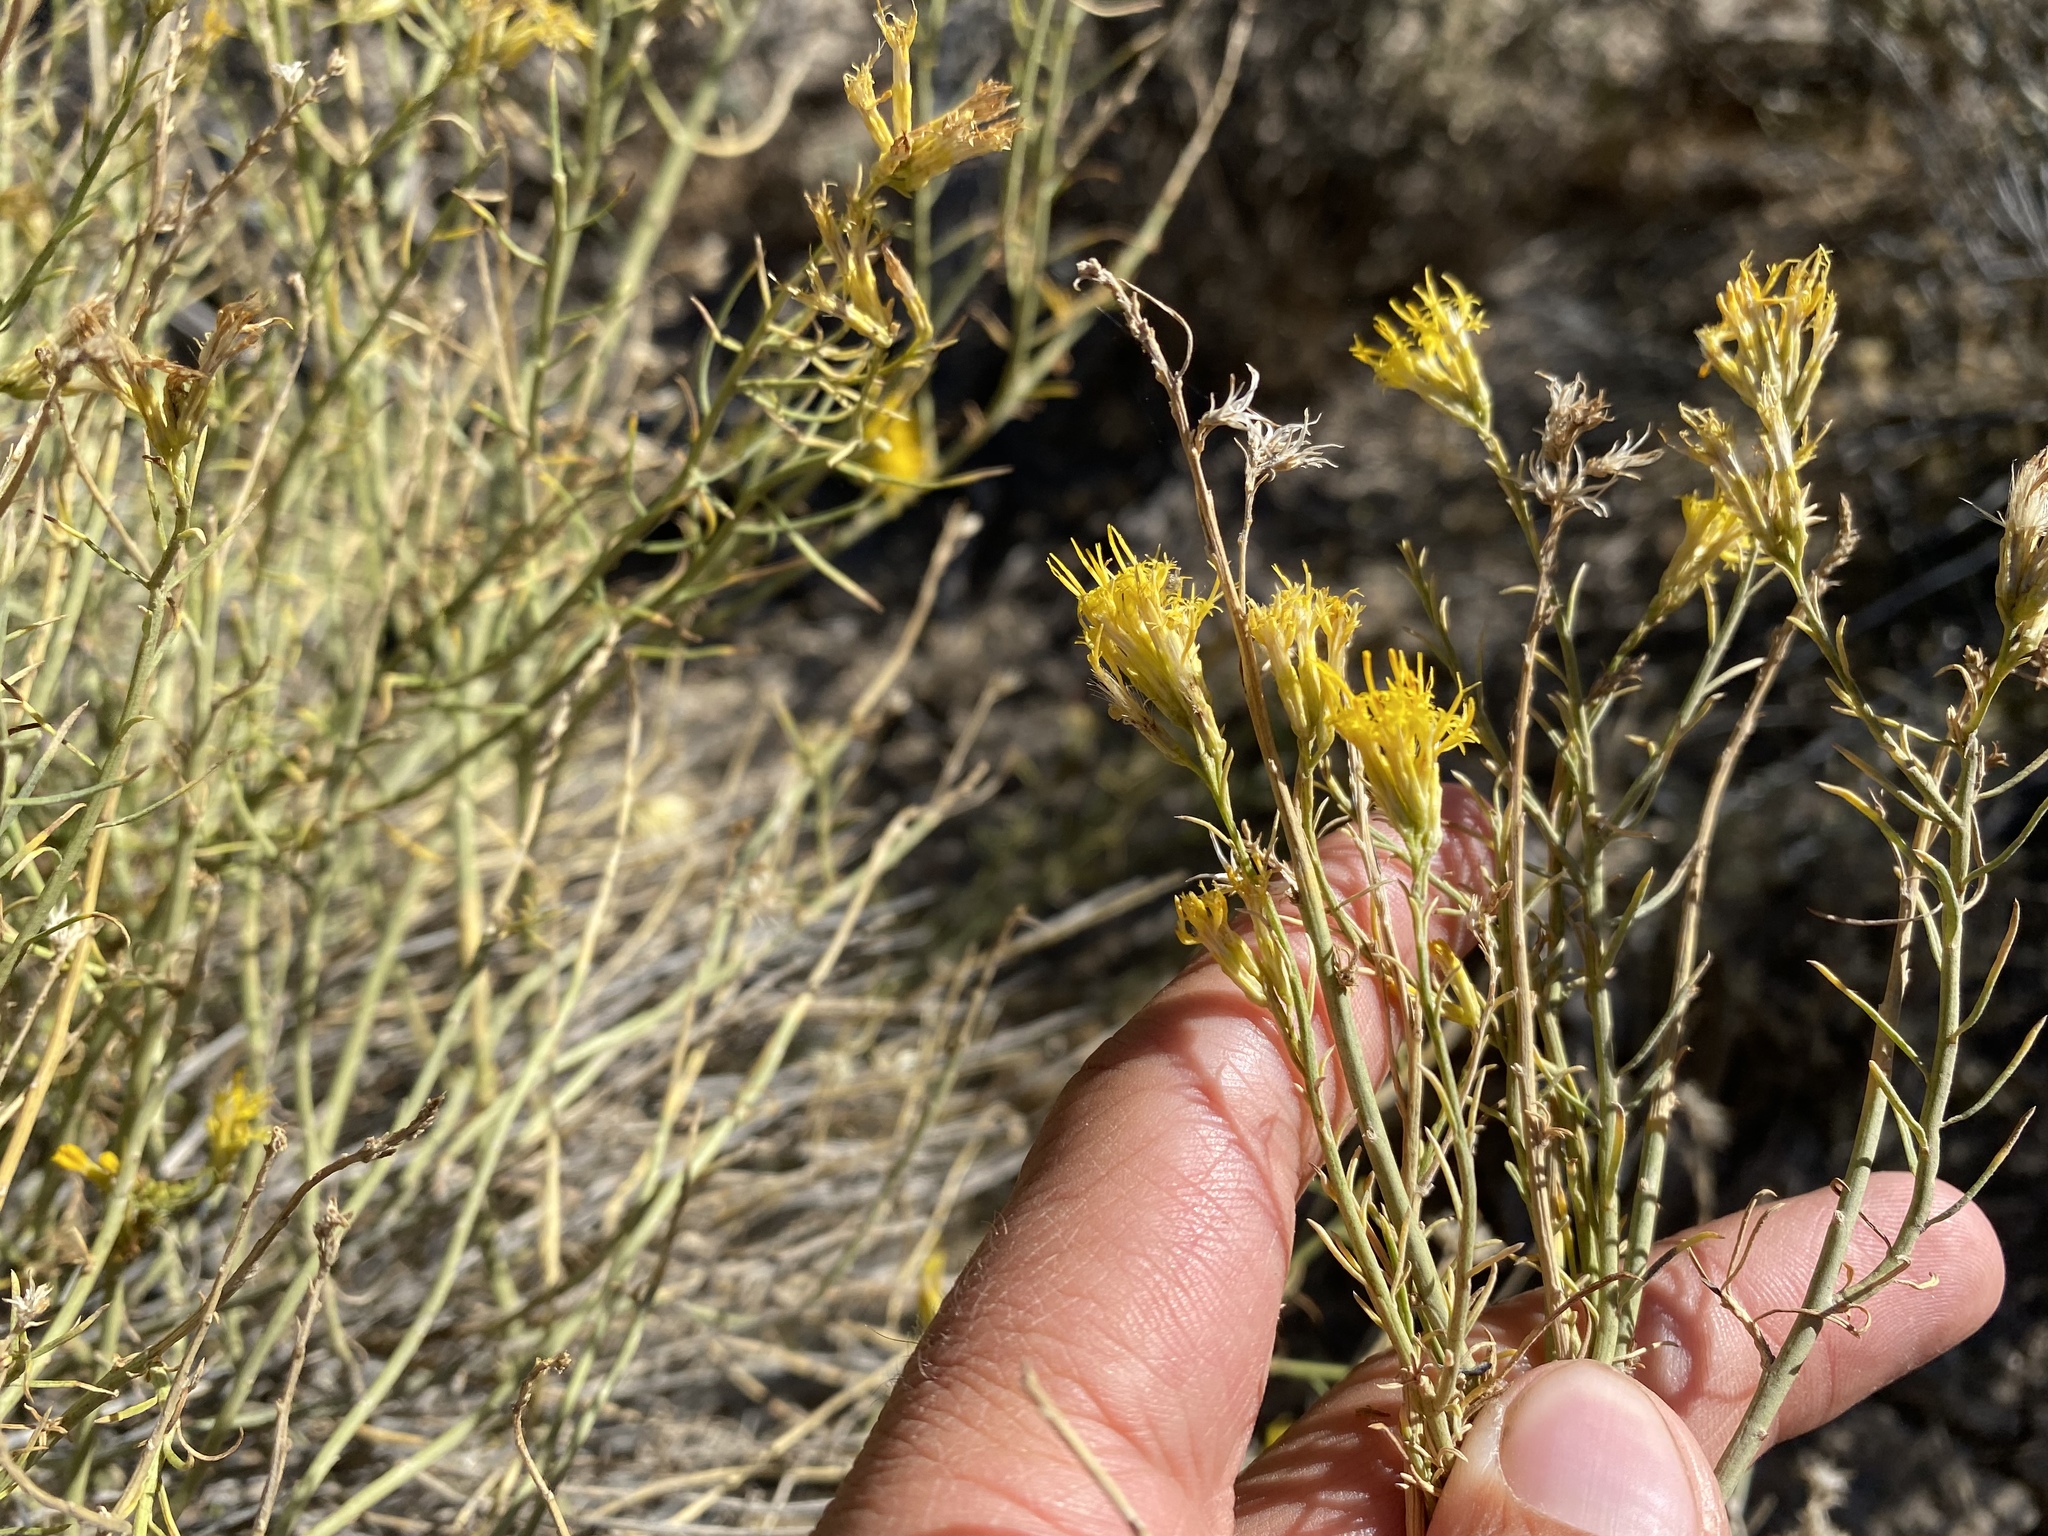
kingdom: Plantae
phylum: Tracheophyta
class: Magnoliopsida
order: Asterales
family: Asteraceae
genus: Ericameria
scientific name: Ericameria nauseosa
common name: Rubber rabbitbrush
